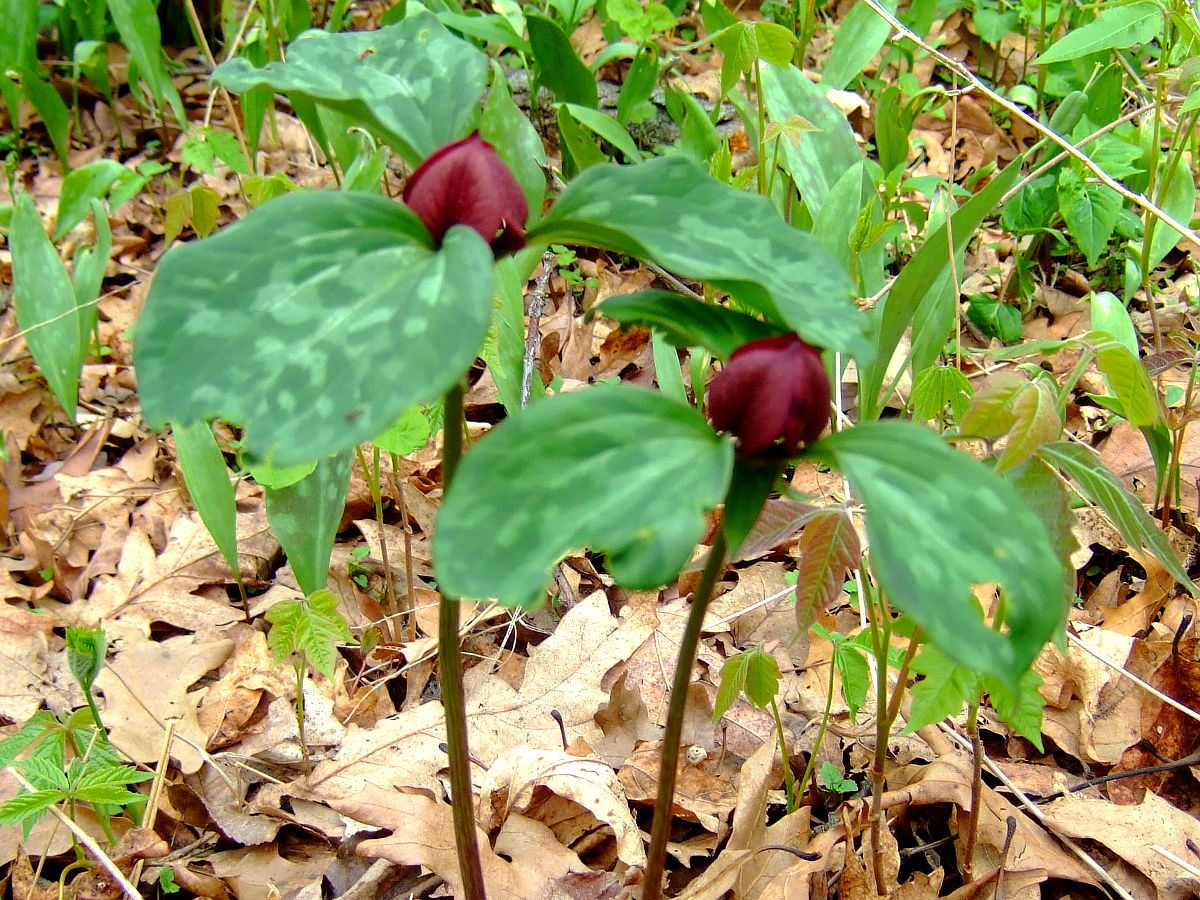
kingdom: Plantae
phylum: Tracheophyta
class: Liliopsida
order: Liliales
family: Melanthiaceae
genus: Trillium
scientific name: Trillium recurvatum
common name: Bloody butcher
